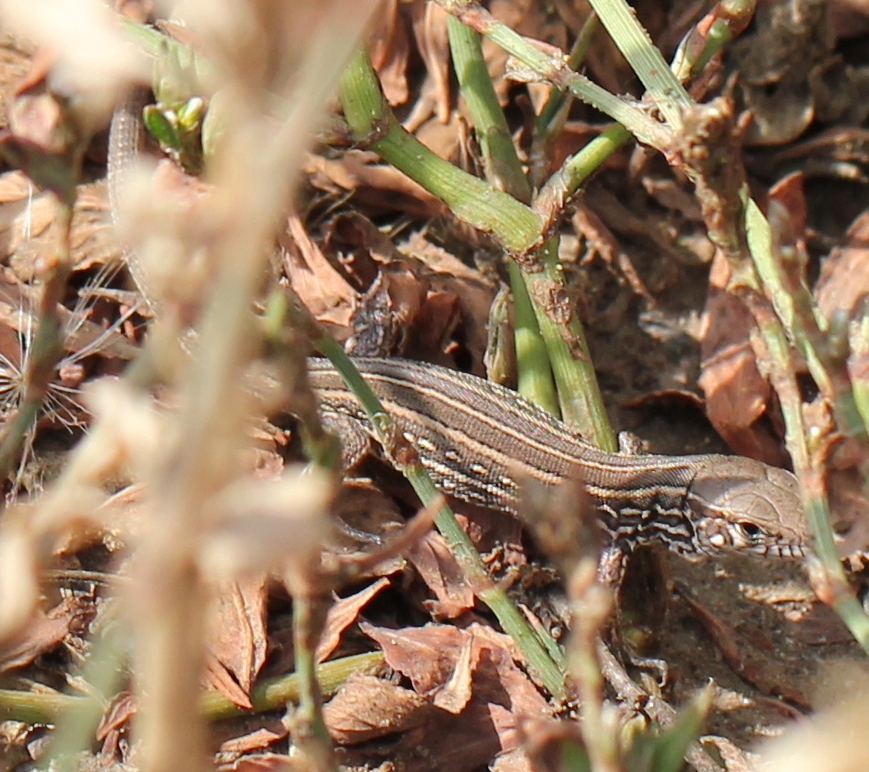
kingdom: Animalia
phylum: Chordata
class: Squamata
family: Lacertidae
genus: Lacerta
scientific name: Lacerta agilis
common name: Sand lizard
